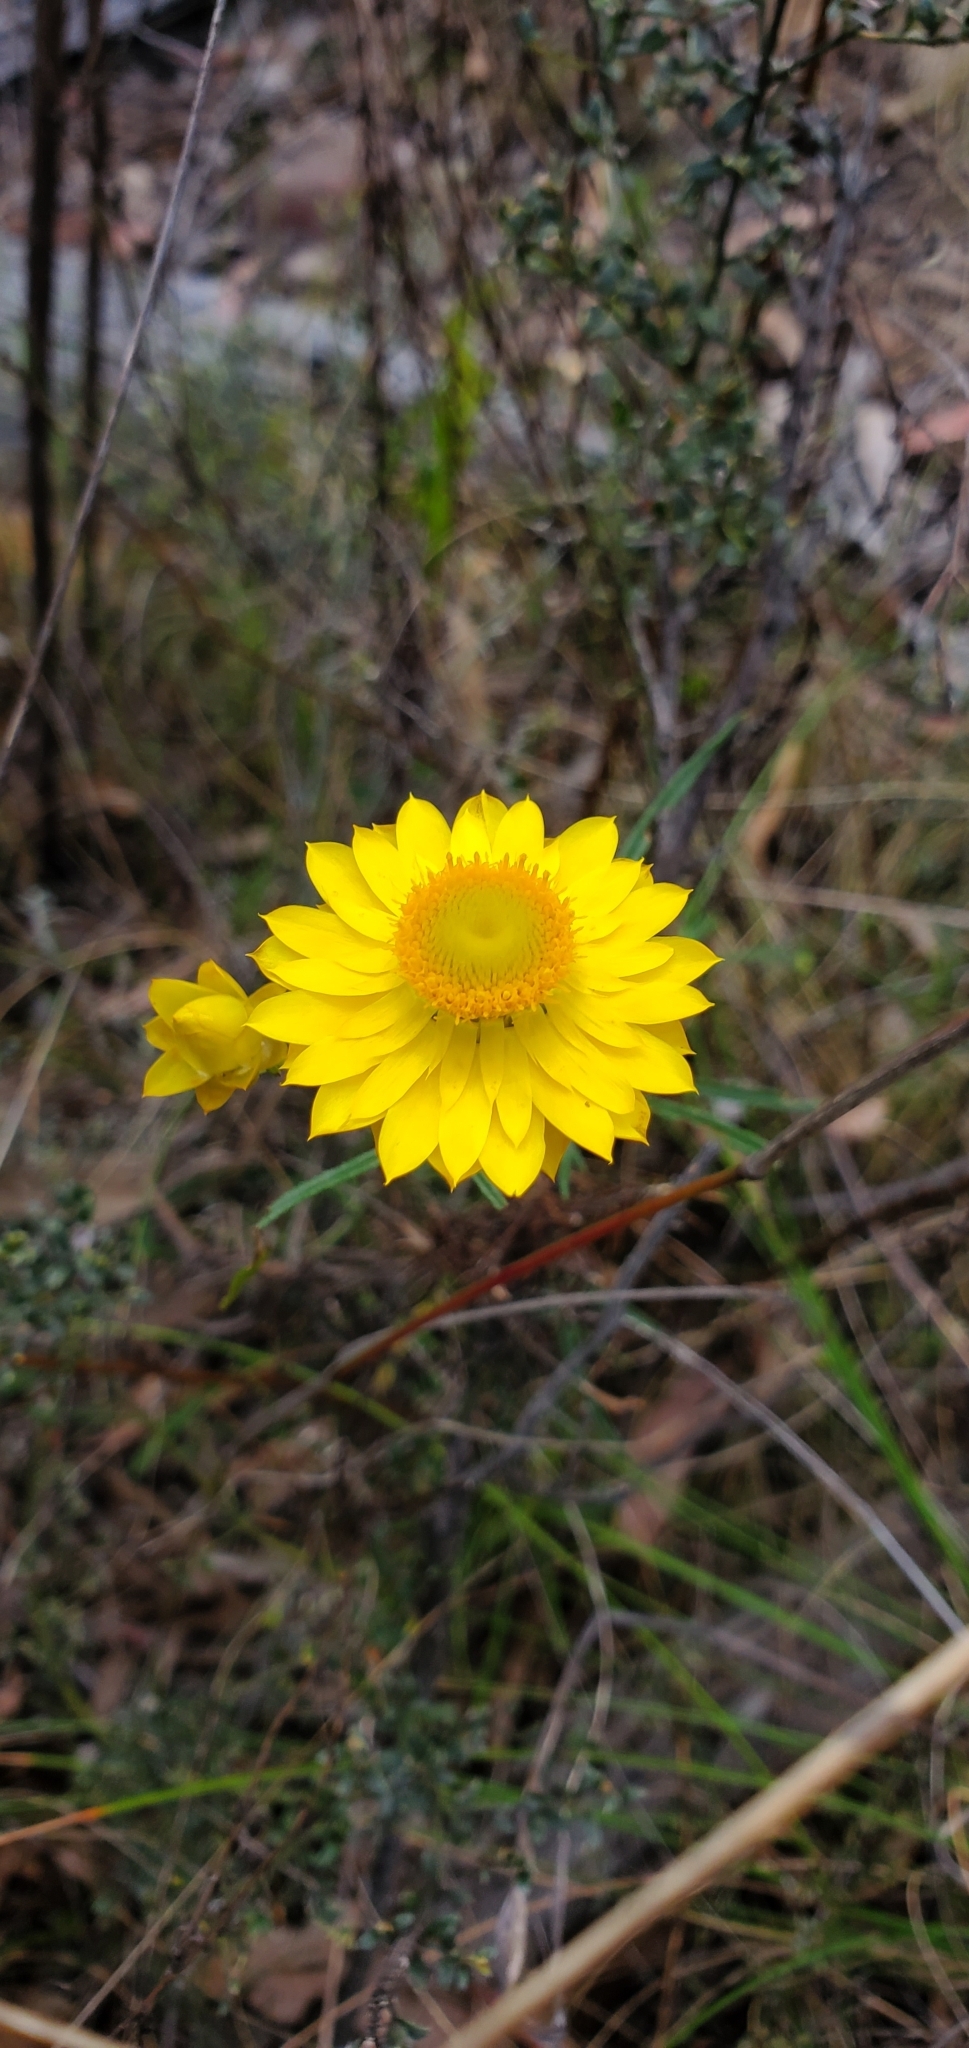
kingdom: Plantae
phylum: Tracheophyta
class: Magnoliopsida
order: Asterales
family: Asteraceae
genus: Xerochrysum
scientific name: Xerochrysum viscosum
